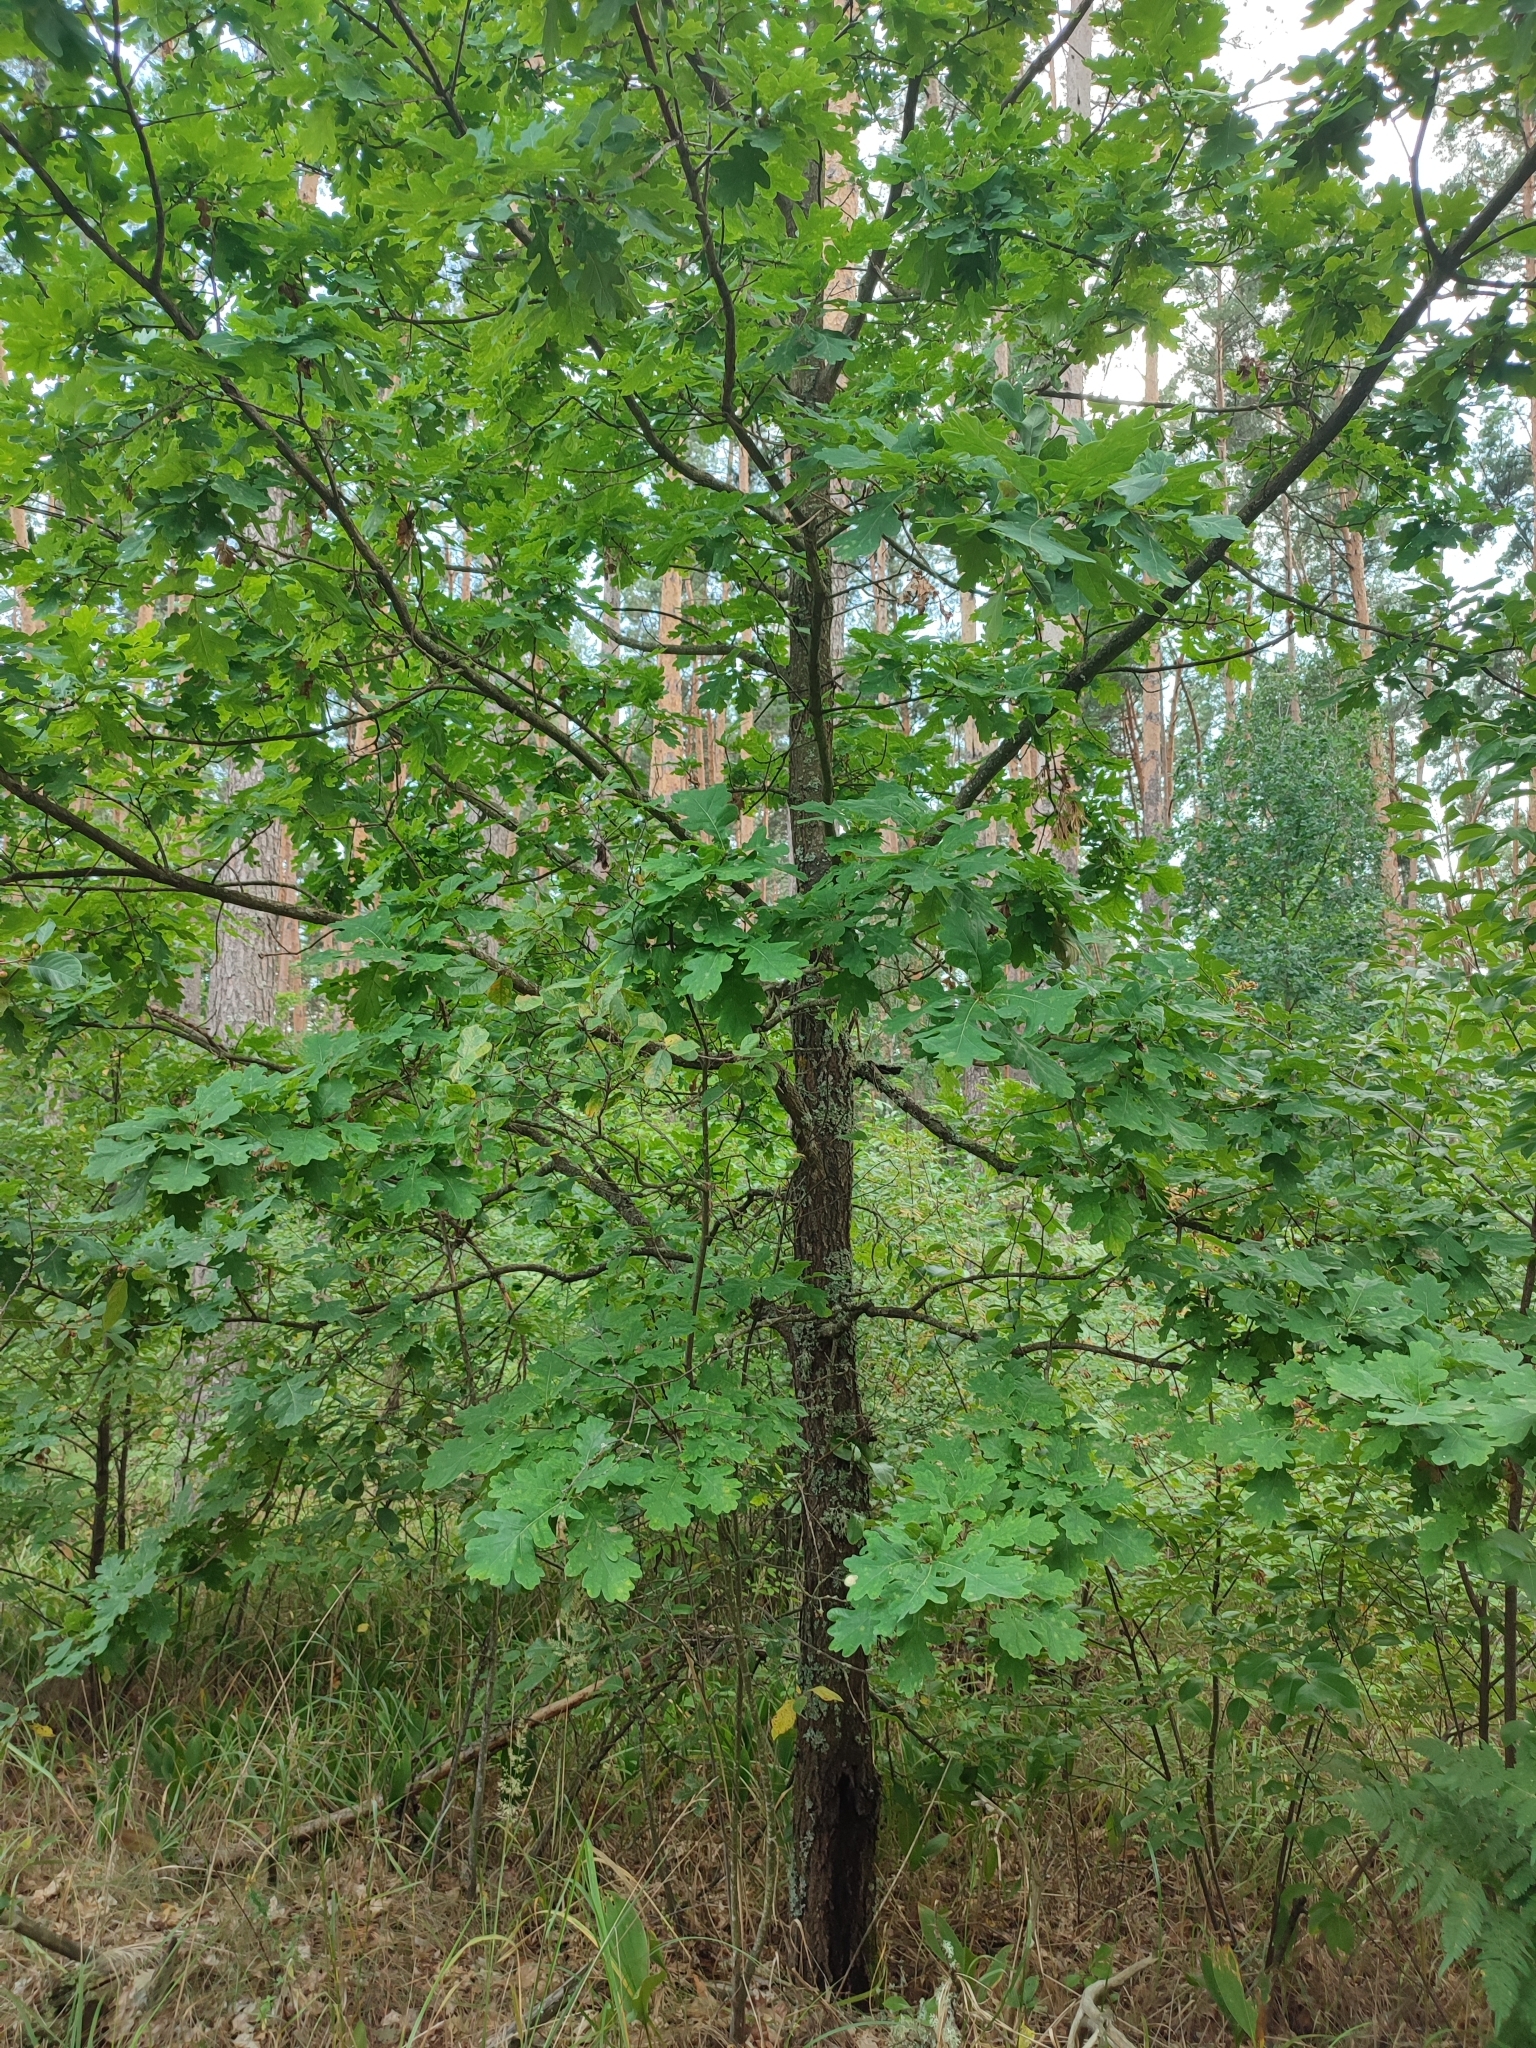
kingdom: Plantae
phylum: Tracheophyta
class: Magnoliopsida
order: Fagales
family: Fagaceae
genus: Quercus
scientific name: Quercus robur
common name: Pedunculate oak
